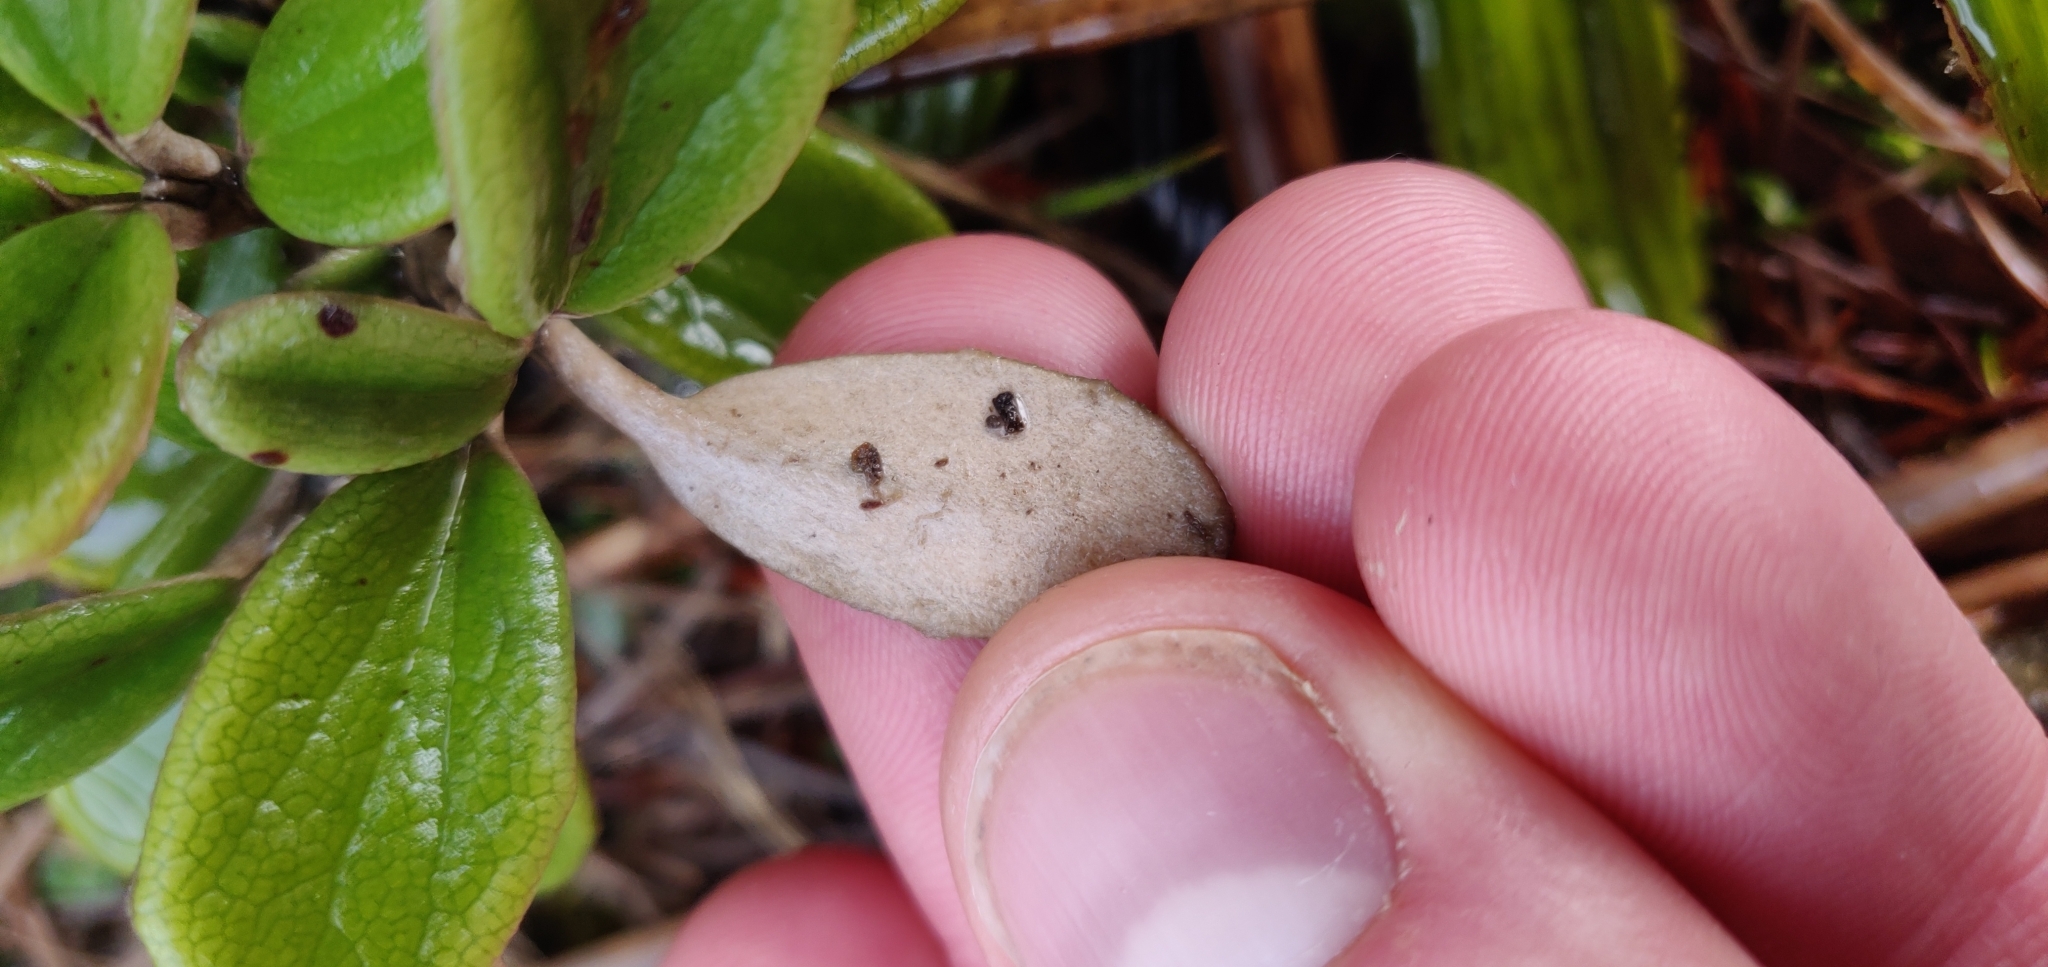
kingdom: Plantae
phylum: Tracheophyta
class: Magnoliopsida
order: Asterales
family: Asteraceae
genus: Brachyglottis
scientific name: Brachyglottis bidwillii
